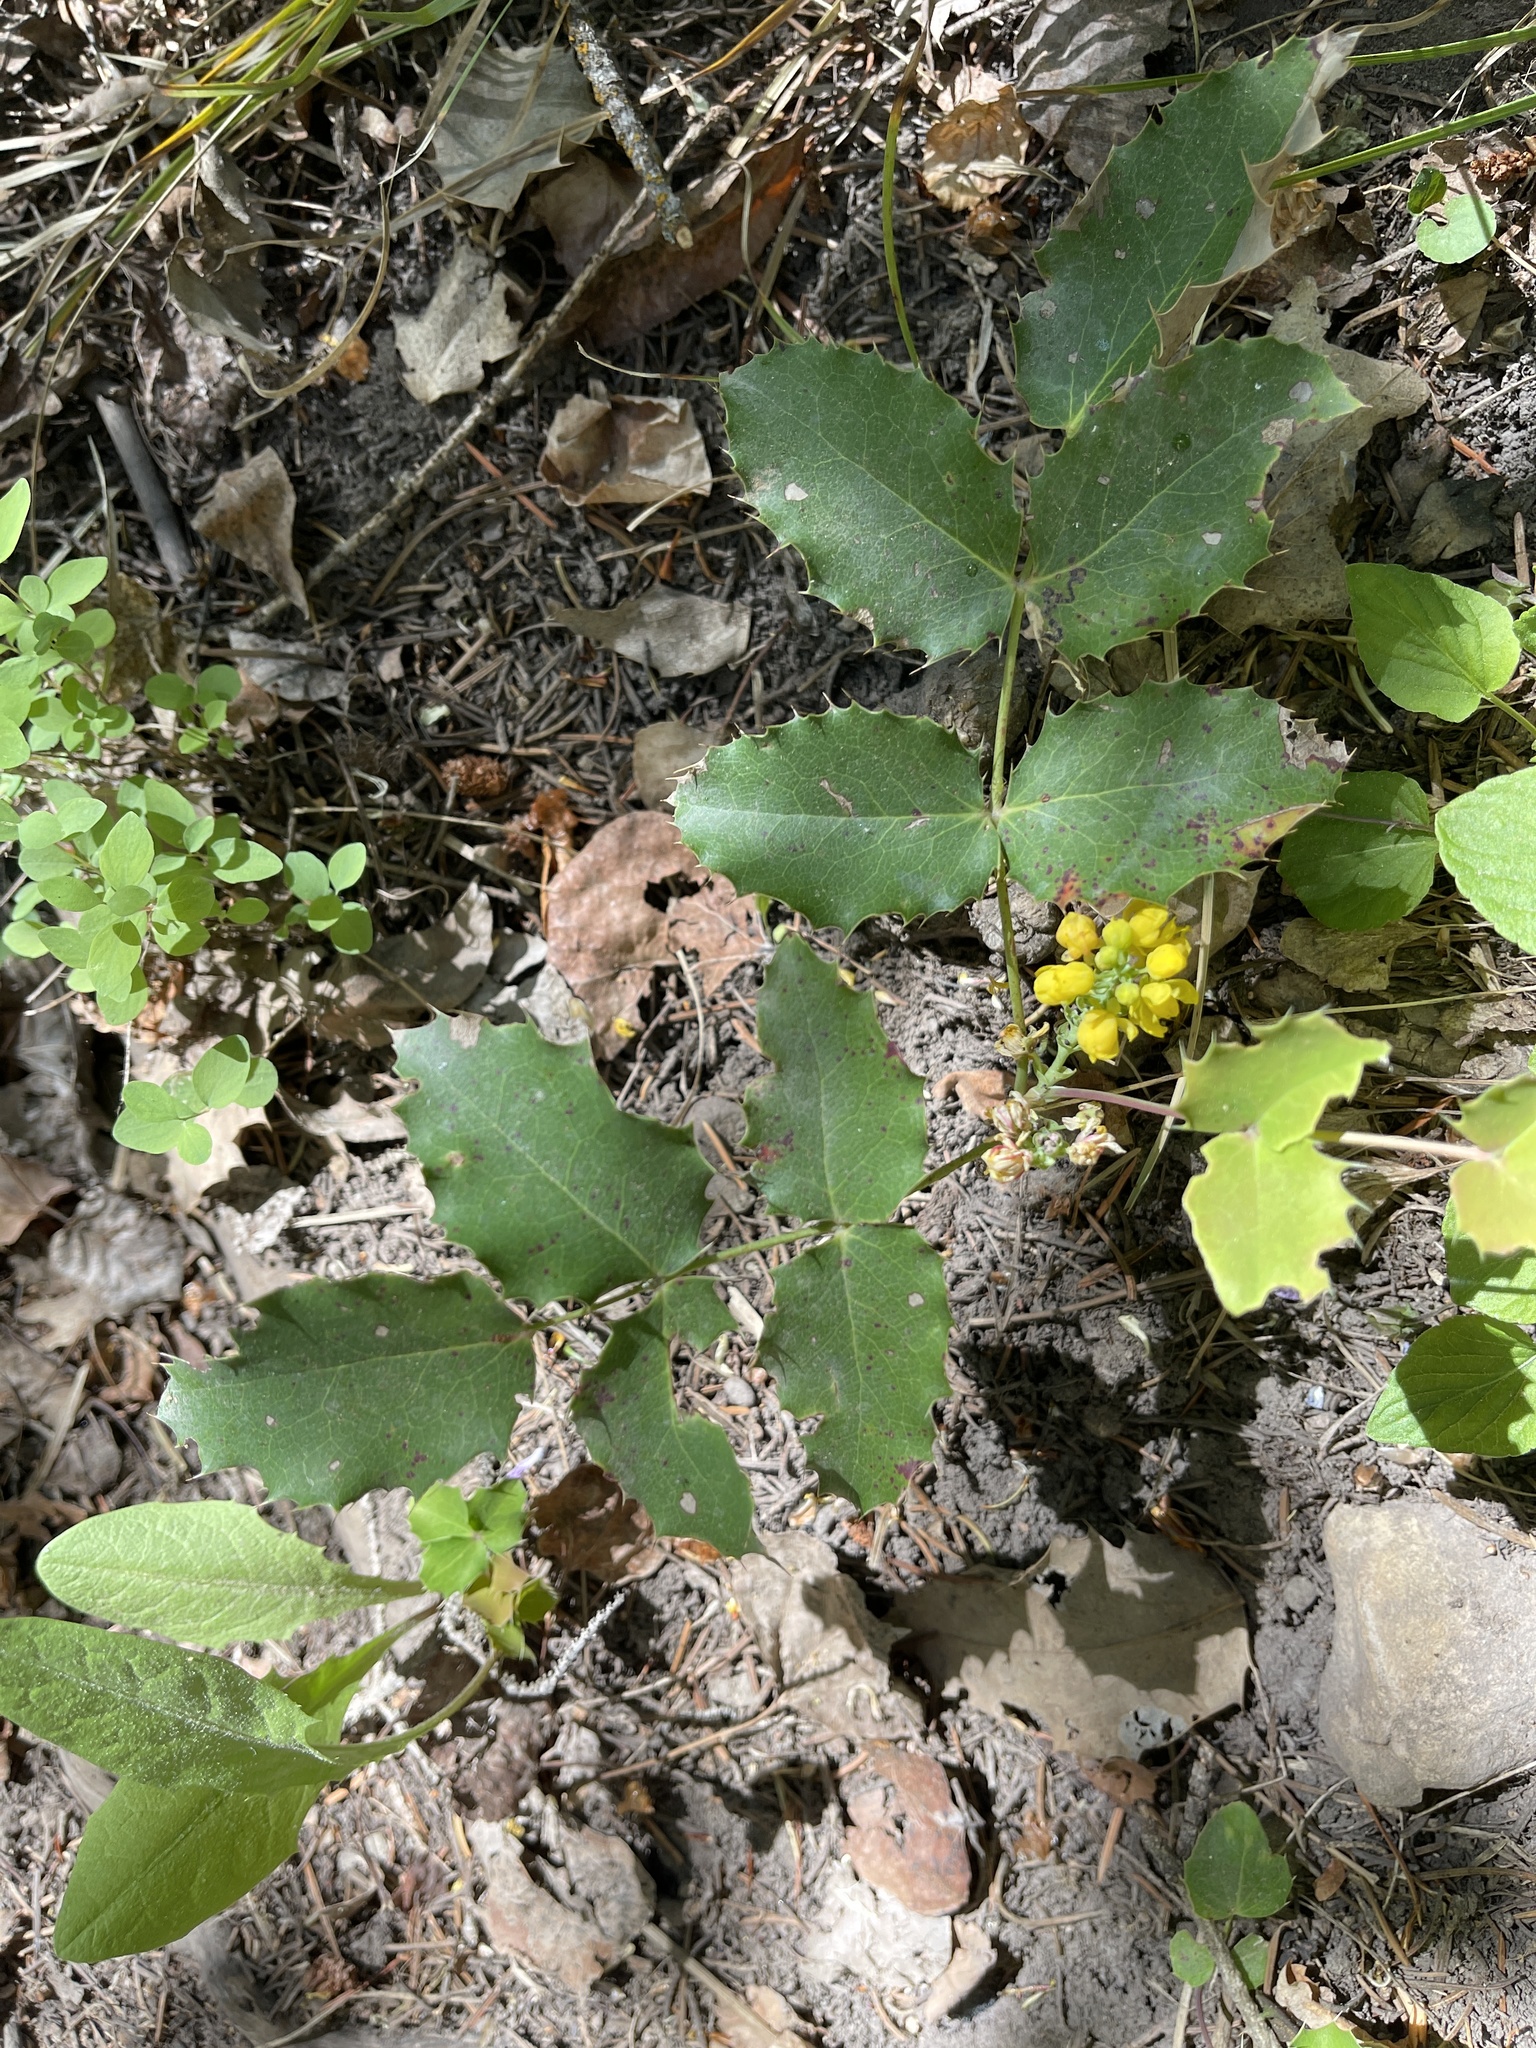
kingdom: Plantae
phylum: Tracheophyta
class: Magnoliopsida
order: Ranunculales
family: Berberidaceae
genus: Mahonia
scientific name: Mahonia repens
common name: Creeping oregon-grape
